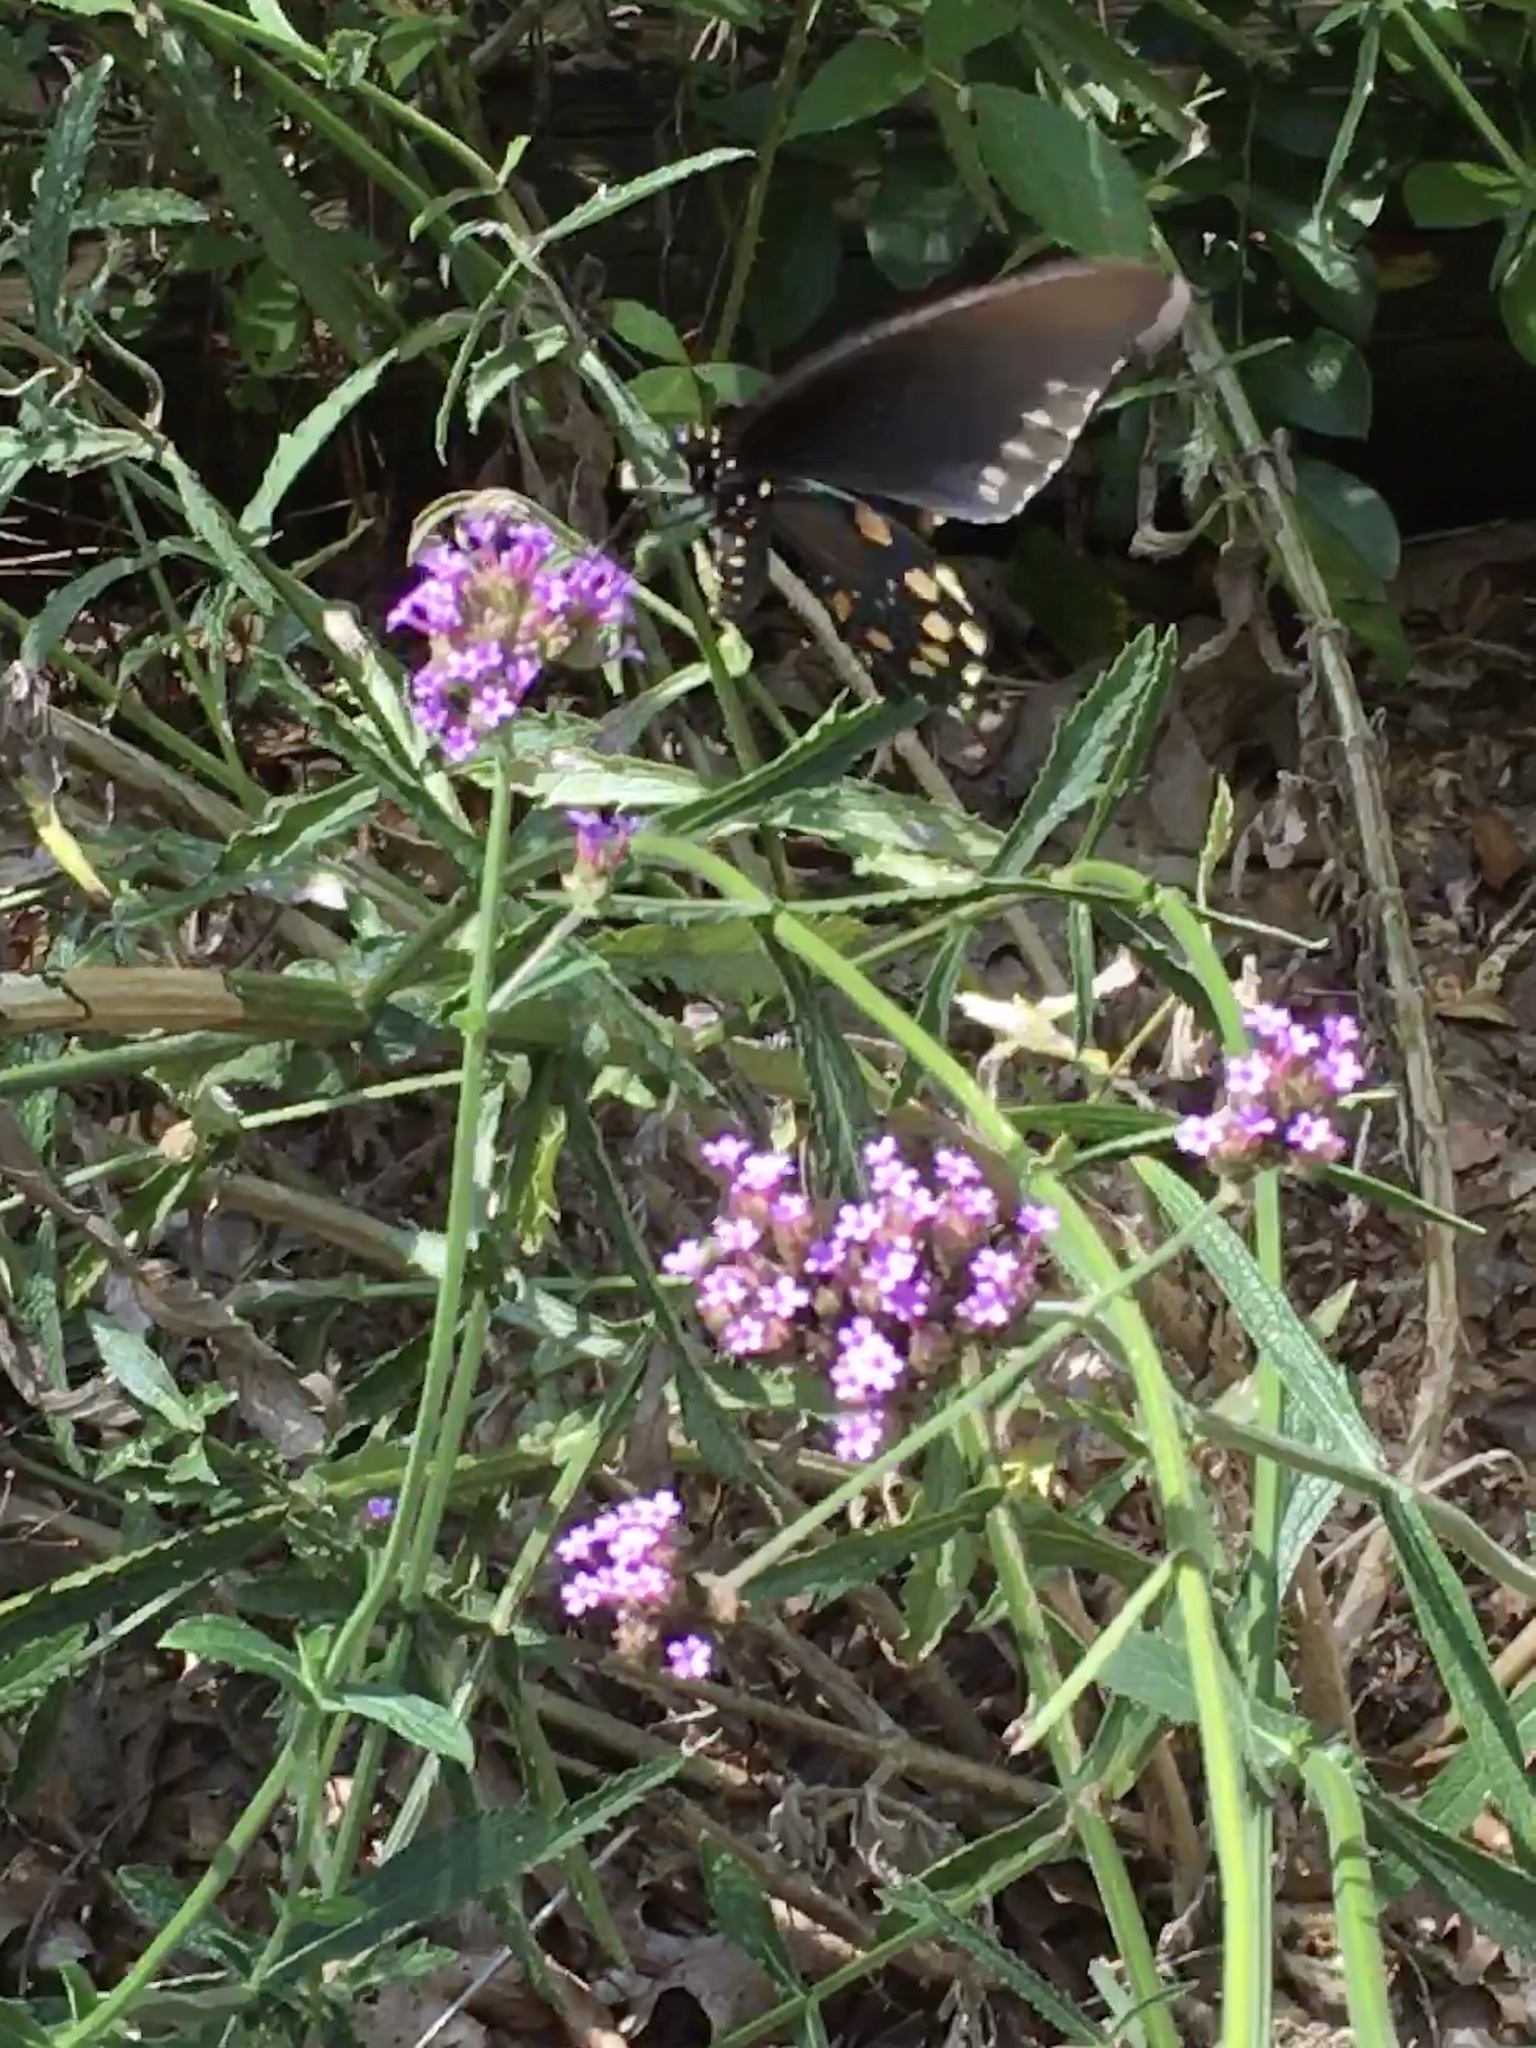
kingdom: Animalia
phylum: Arthropoda
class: Insecta
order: Lepidoptera
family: Papilionidae
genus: Battus
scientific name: Battus philenor
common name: Pipevine swallowtail
